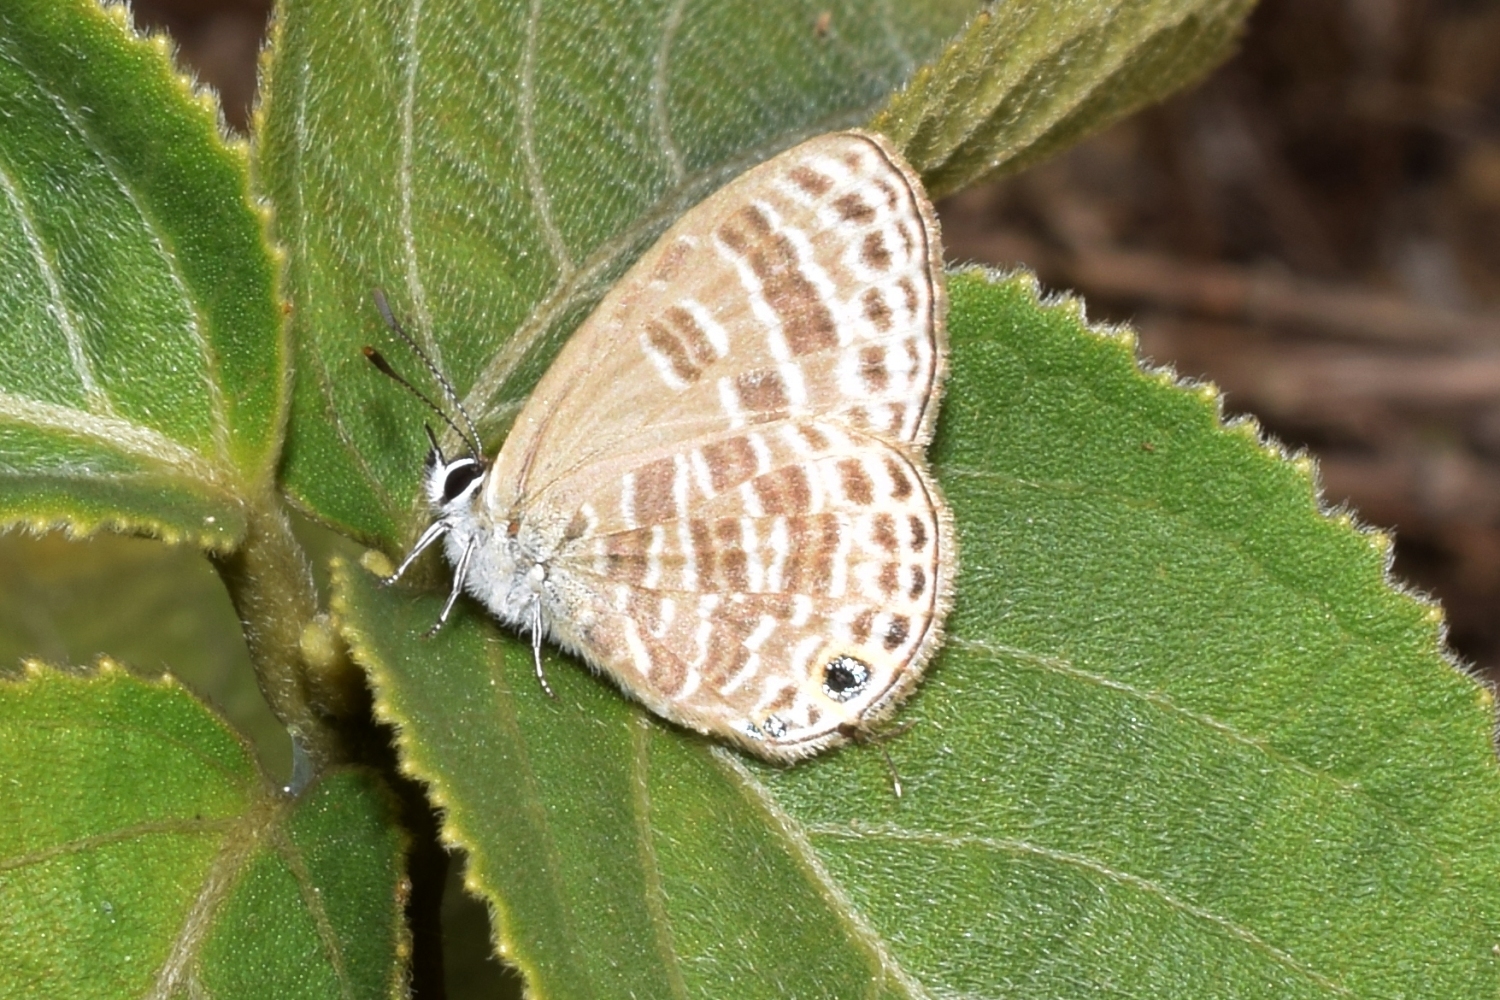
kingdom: Animalia
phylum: Arthropoda
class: Insecta
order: Lepidoptera
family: Lycaenidae
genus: Nacaduba
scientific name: Nacaduba pavana
